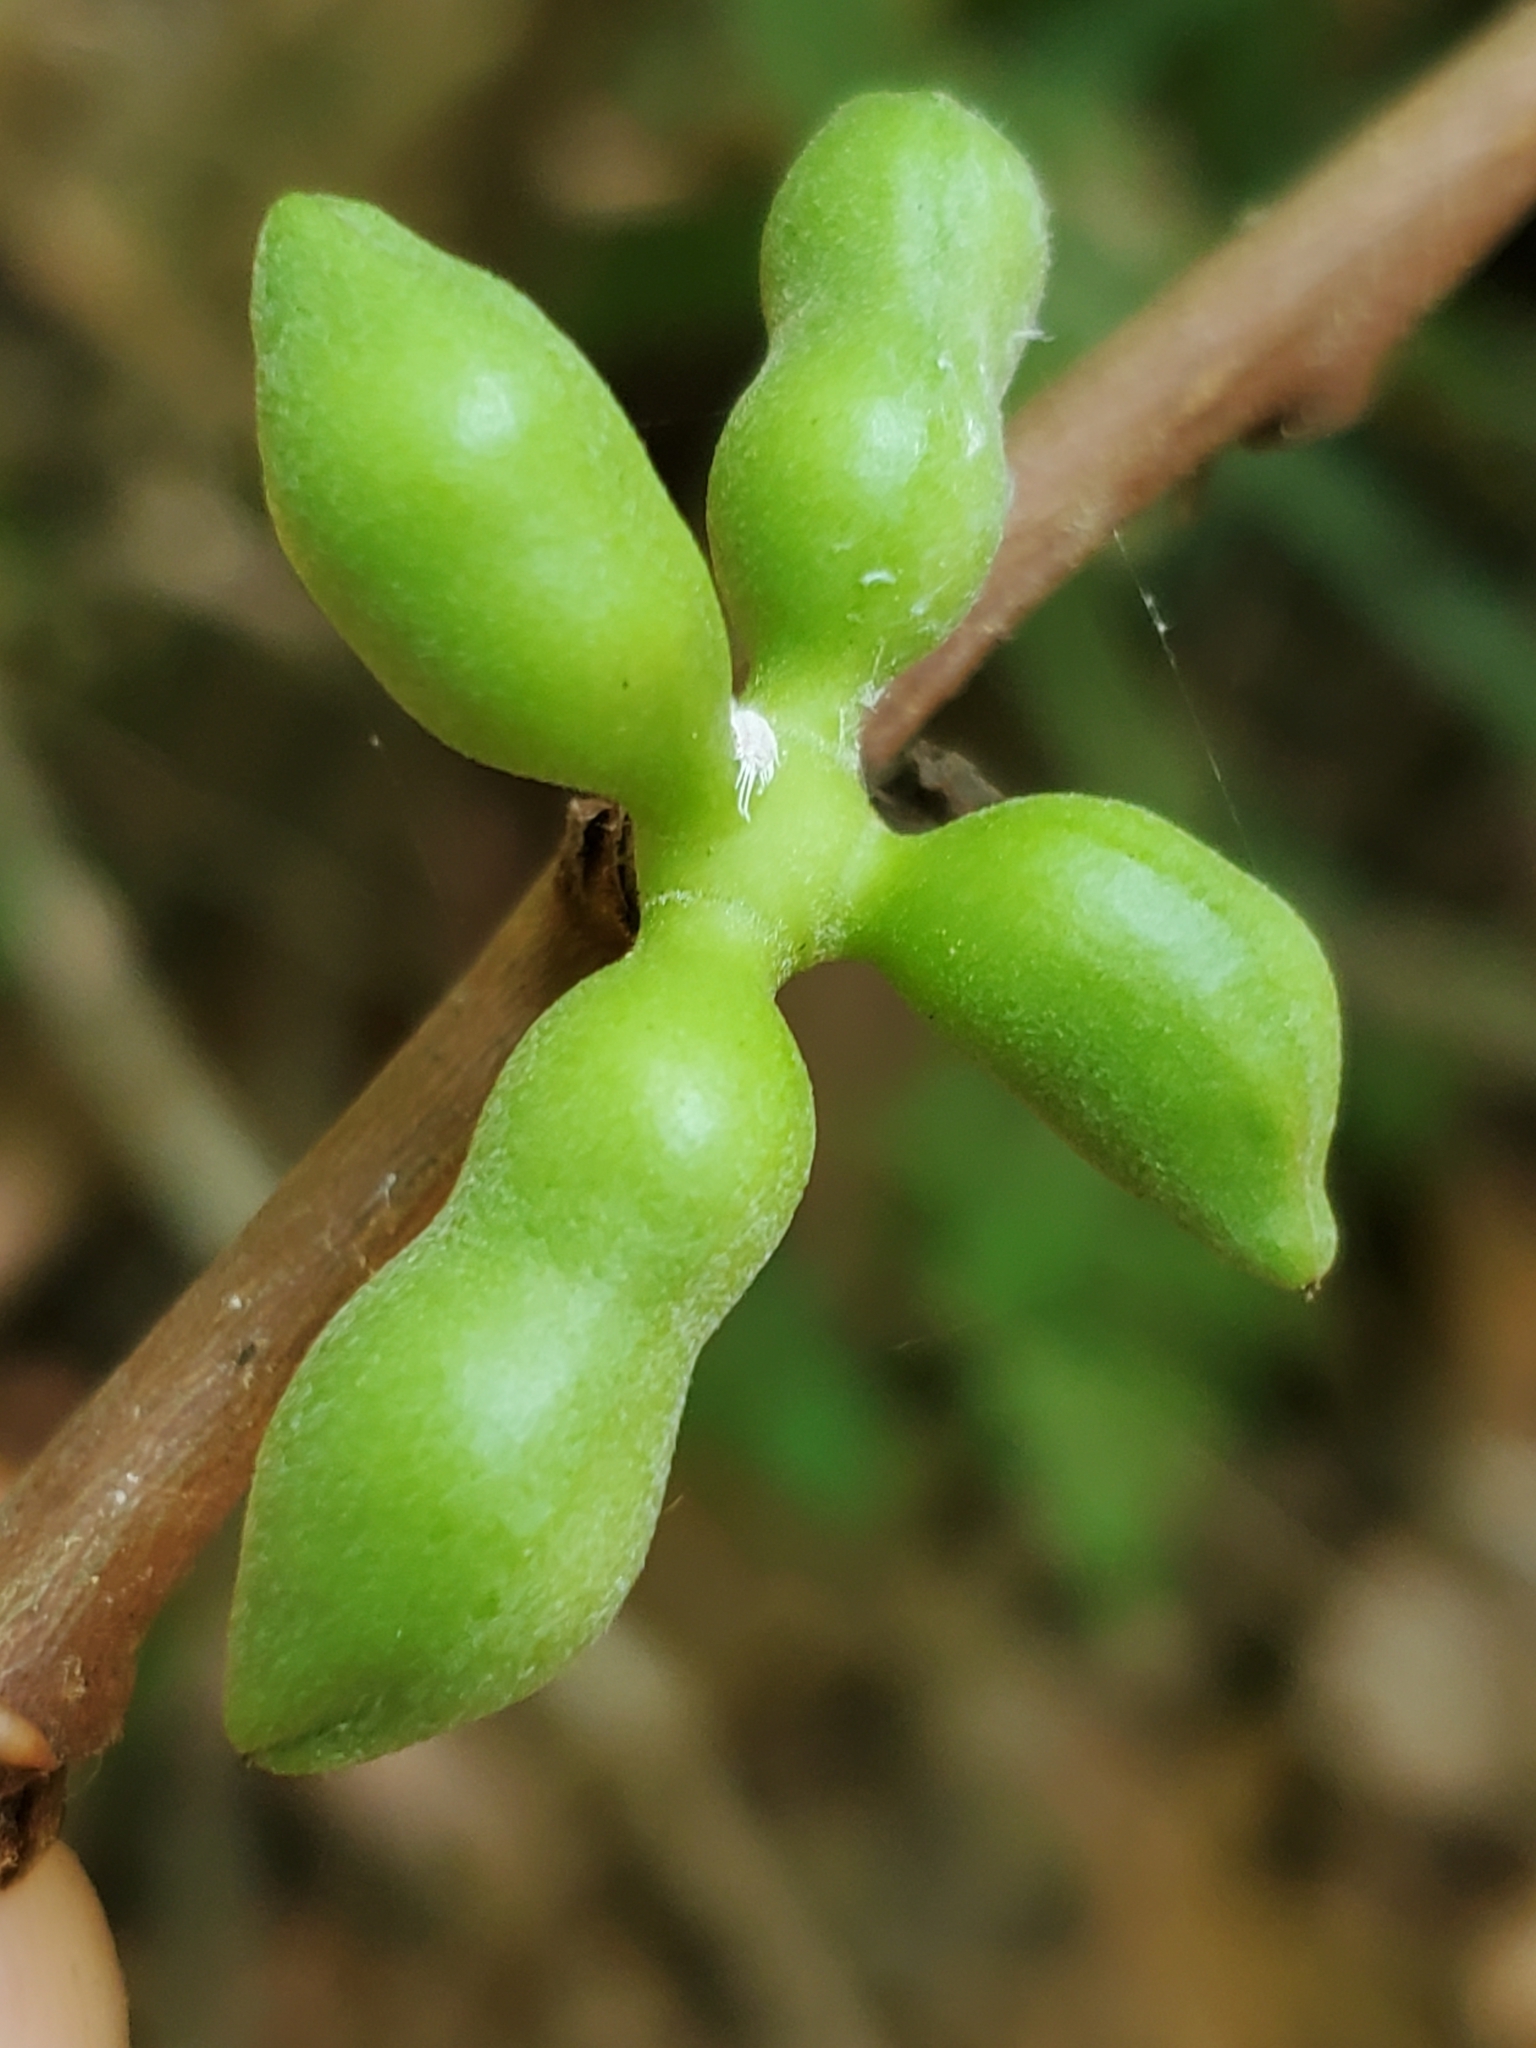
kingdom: Plantae
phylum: Tracheophyta
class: Magnoliopsida
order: Magnoliales
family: Annonaceae
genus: Asimina
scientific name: Asimina parviflora
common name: Dwarf pawpaw
